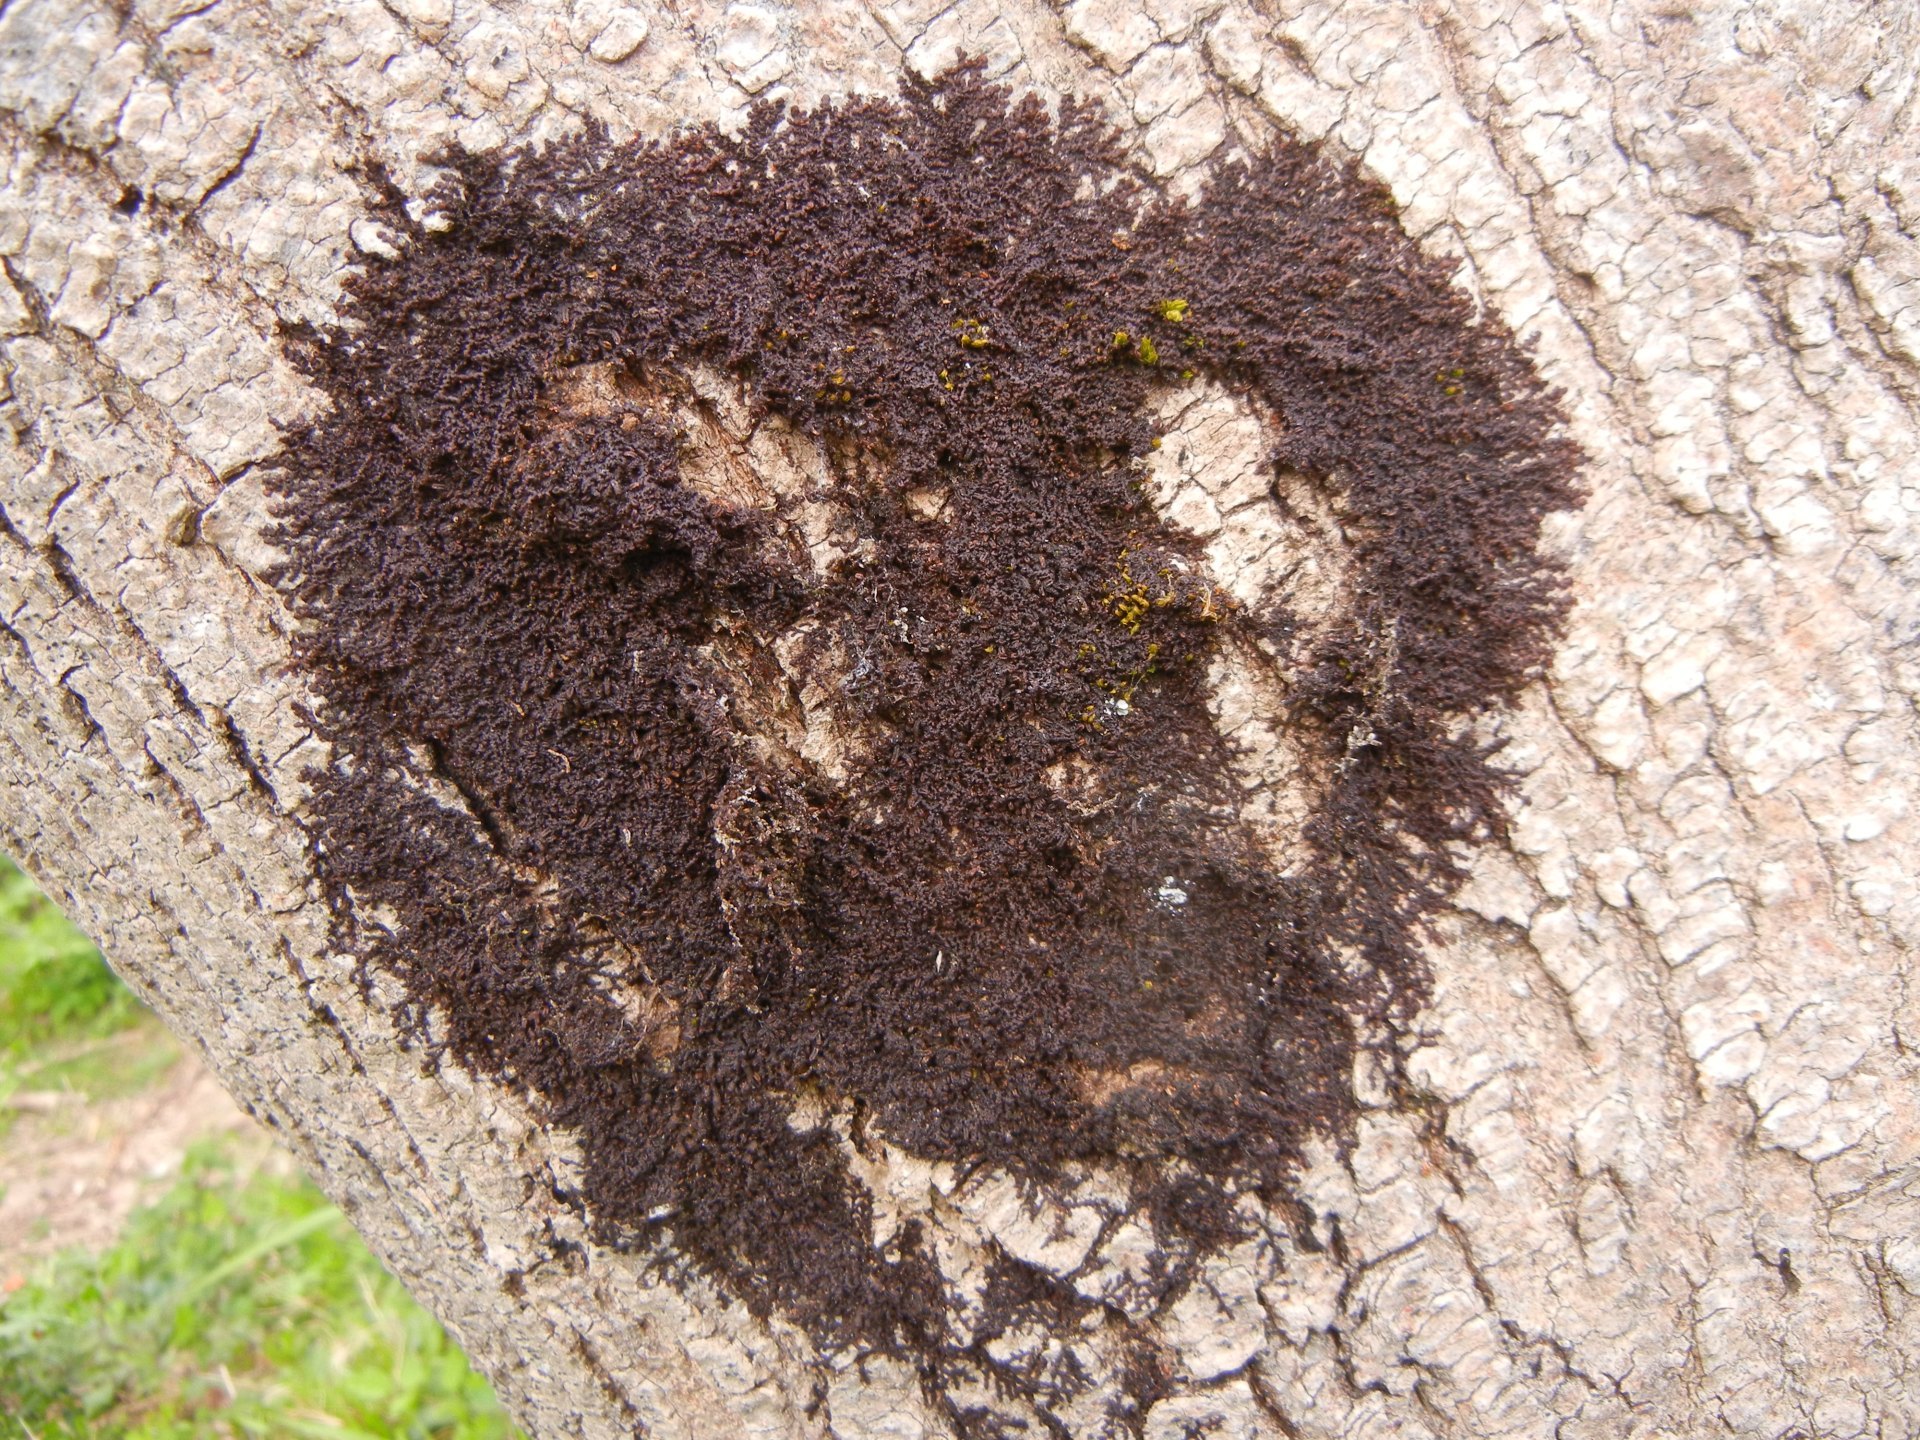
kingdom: Plantae
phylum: Marchantiophyta
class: Jungermanniopsida
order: Porellales
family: Frullaniaceae
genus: Frullania
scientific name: Frullania dilatata
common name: Dilated scalewort
